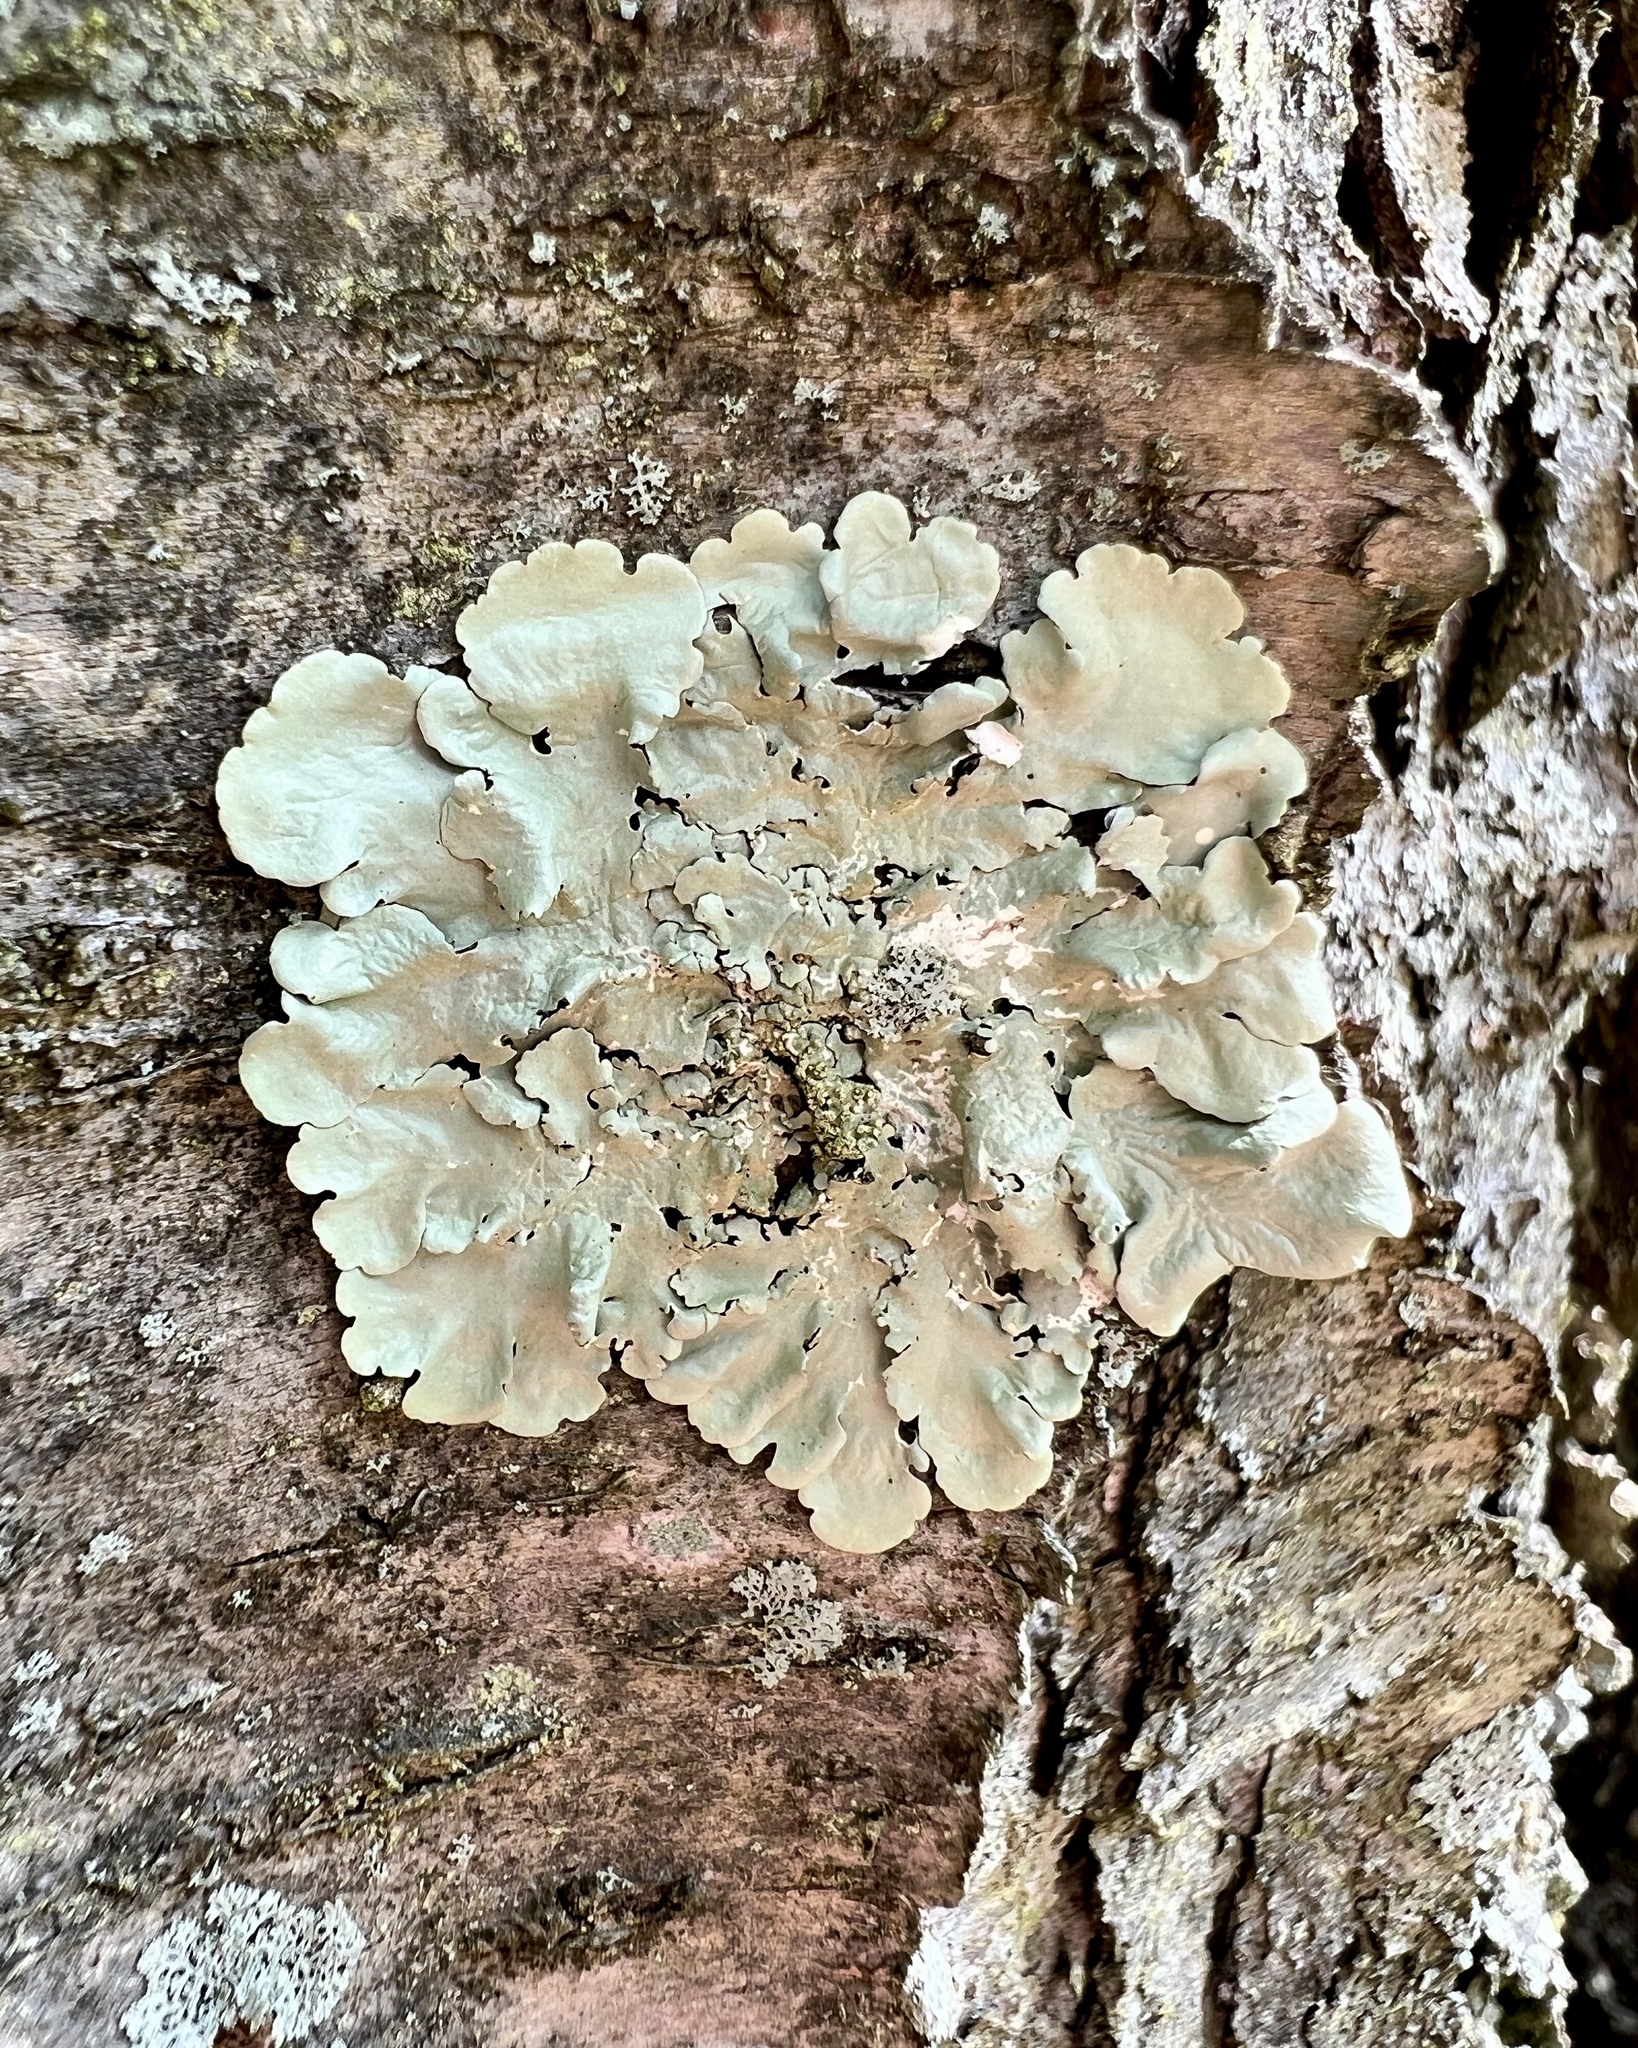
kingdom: Fungi
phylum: Ascomycota
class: Lecanoromycetes
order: Lecanorales
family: Parmeliaceae
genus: Flavoparmelia
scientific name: Flavoparmelia caperata
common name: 40-mile per hour lichen
